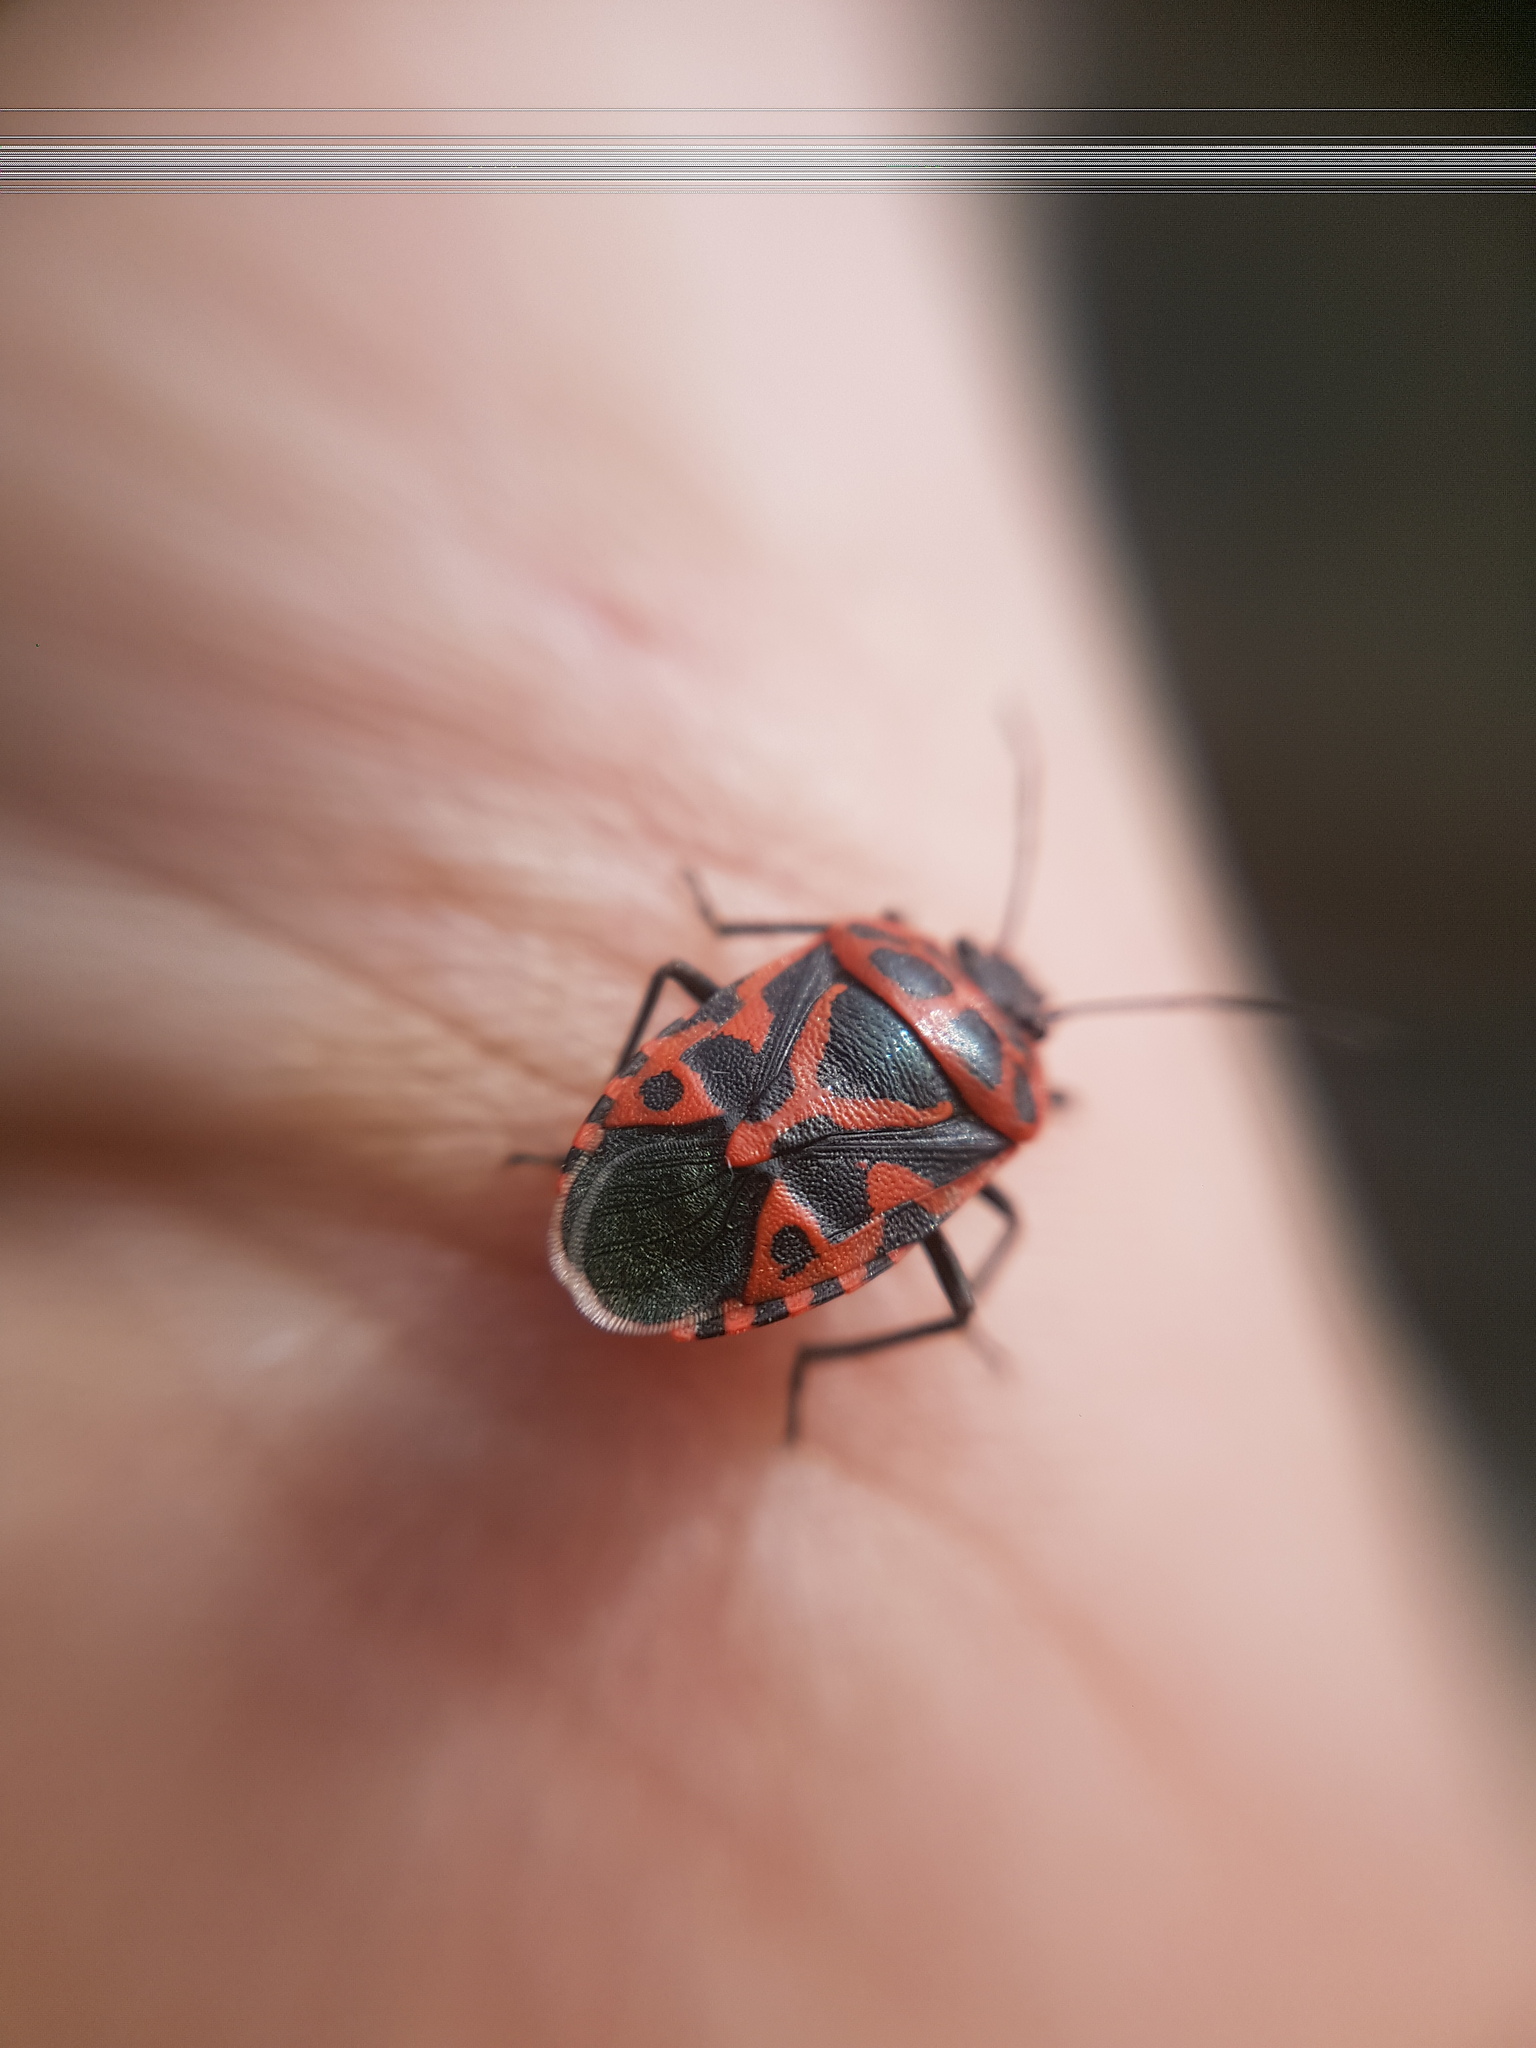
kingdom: Animalia
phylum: Arthropoda
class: Insecta
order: Hemiptera
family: Pentatomidae
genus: Eurydema
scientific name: Eurydema ventralis
